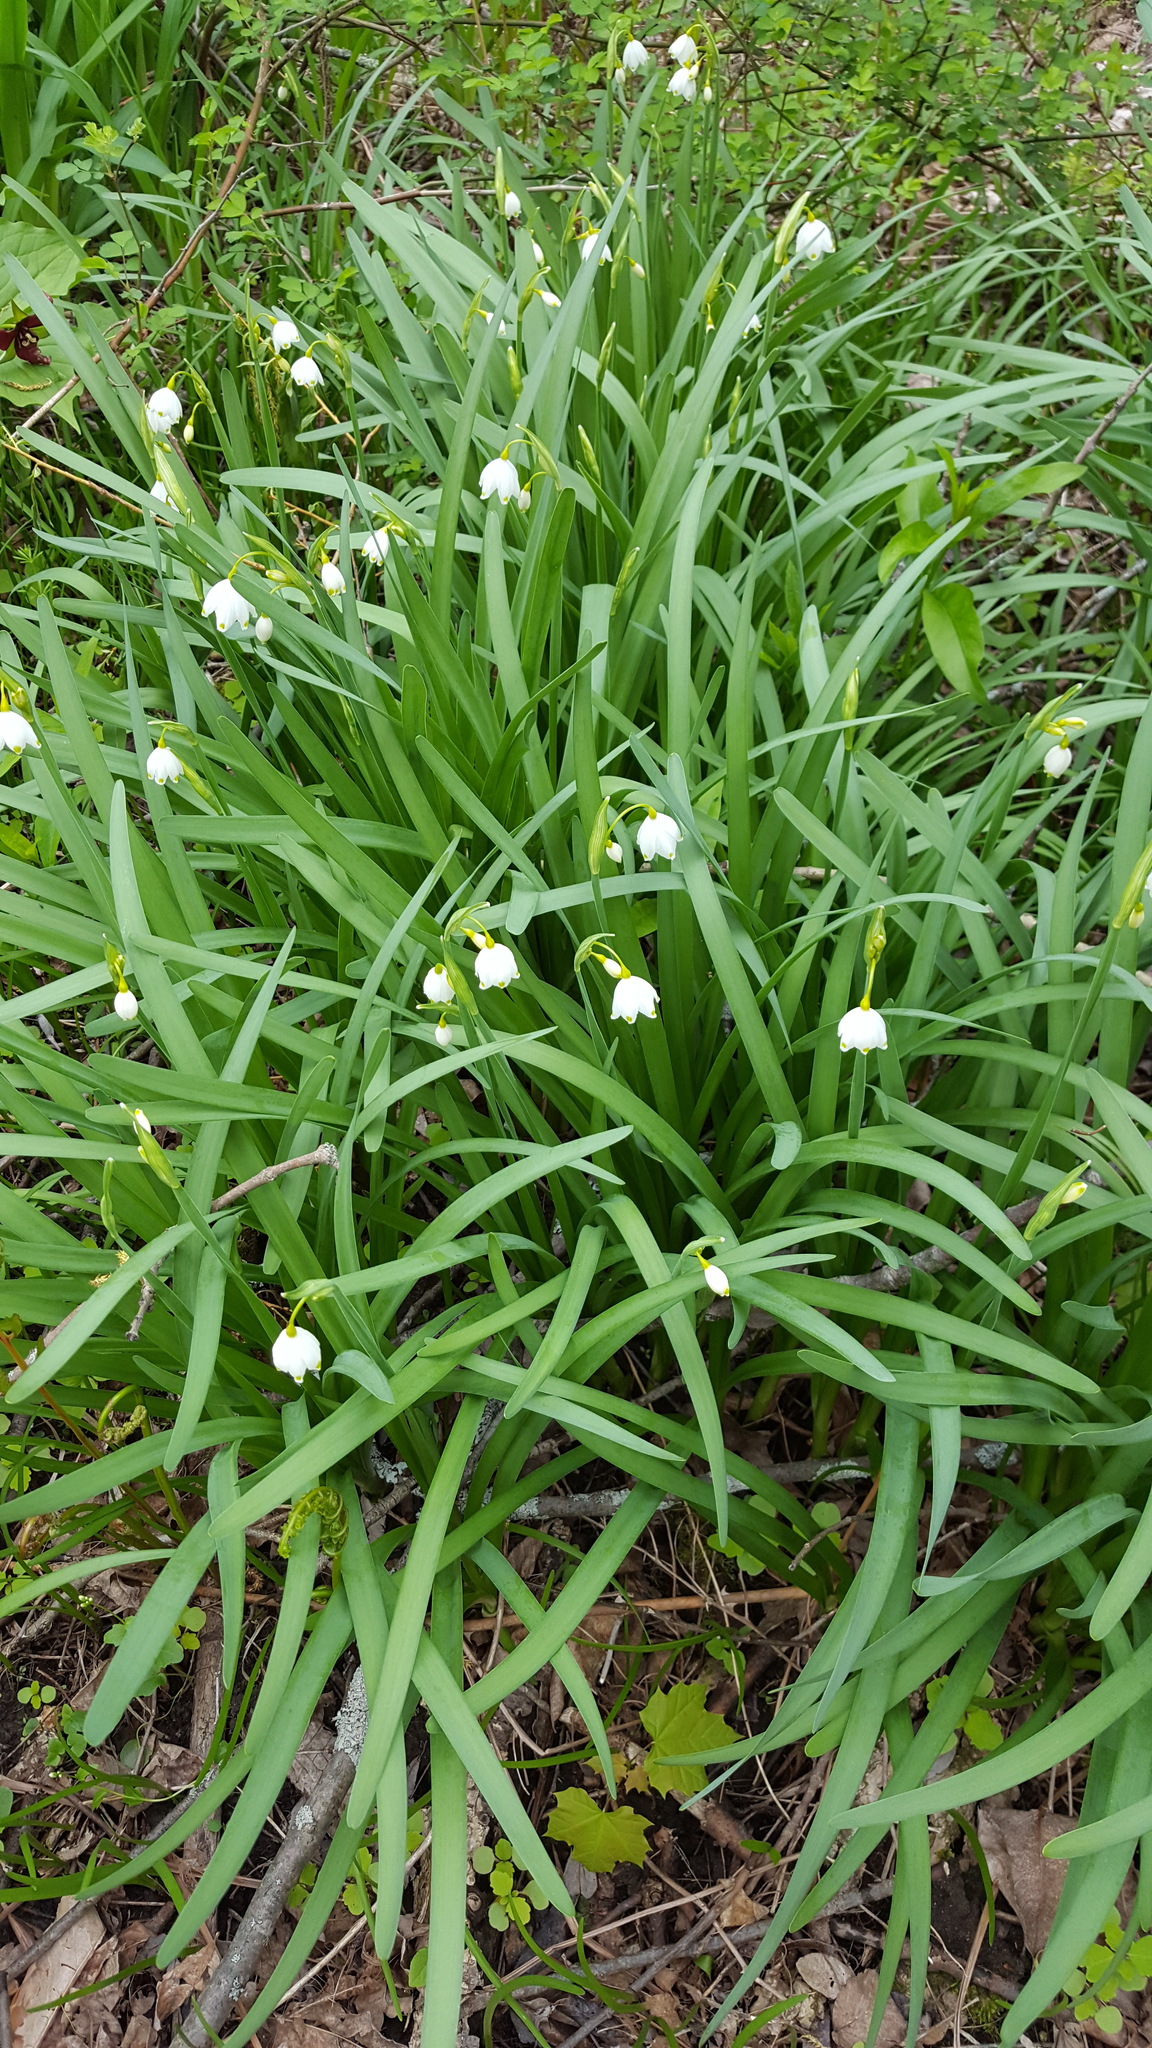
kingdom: Plantae
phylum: Tracheophyta
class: Liliopsida
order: Asparagales
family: Amaryllidaceae
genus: Leucojum
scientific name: Leucojum aestivum
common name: Summer snowflake
